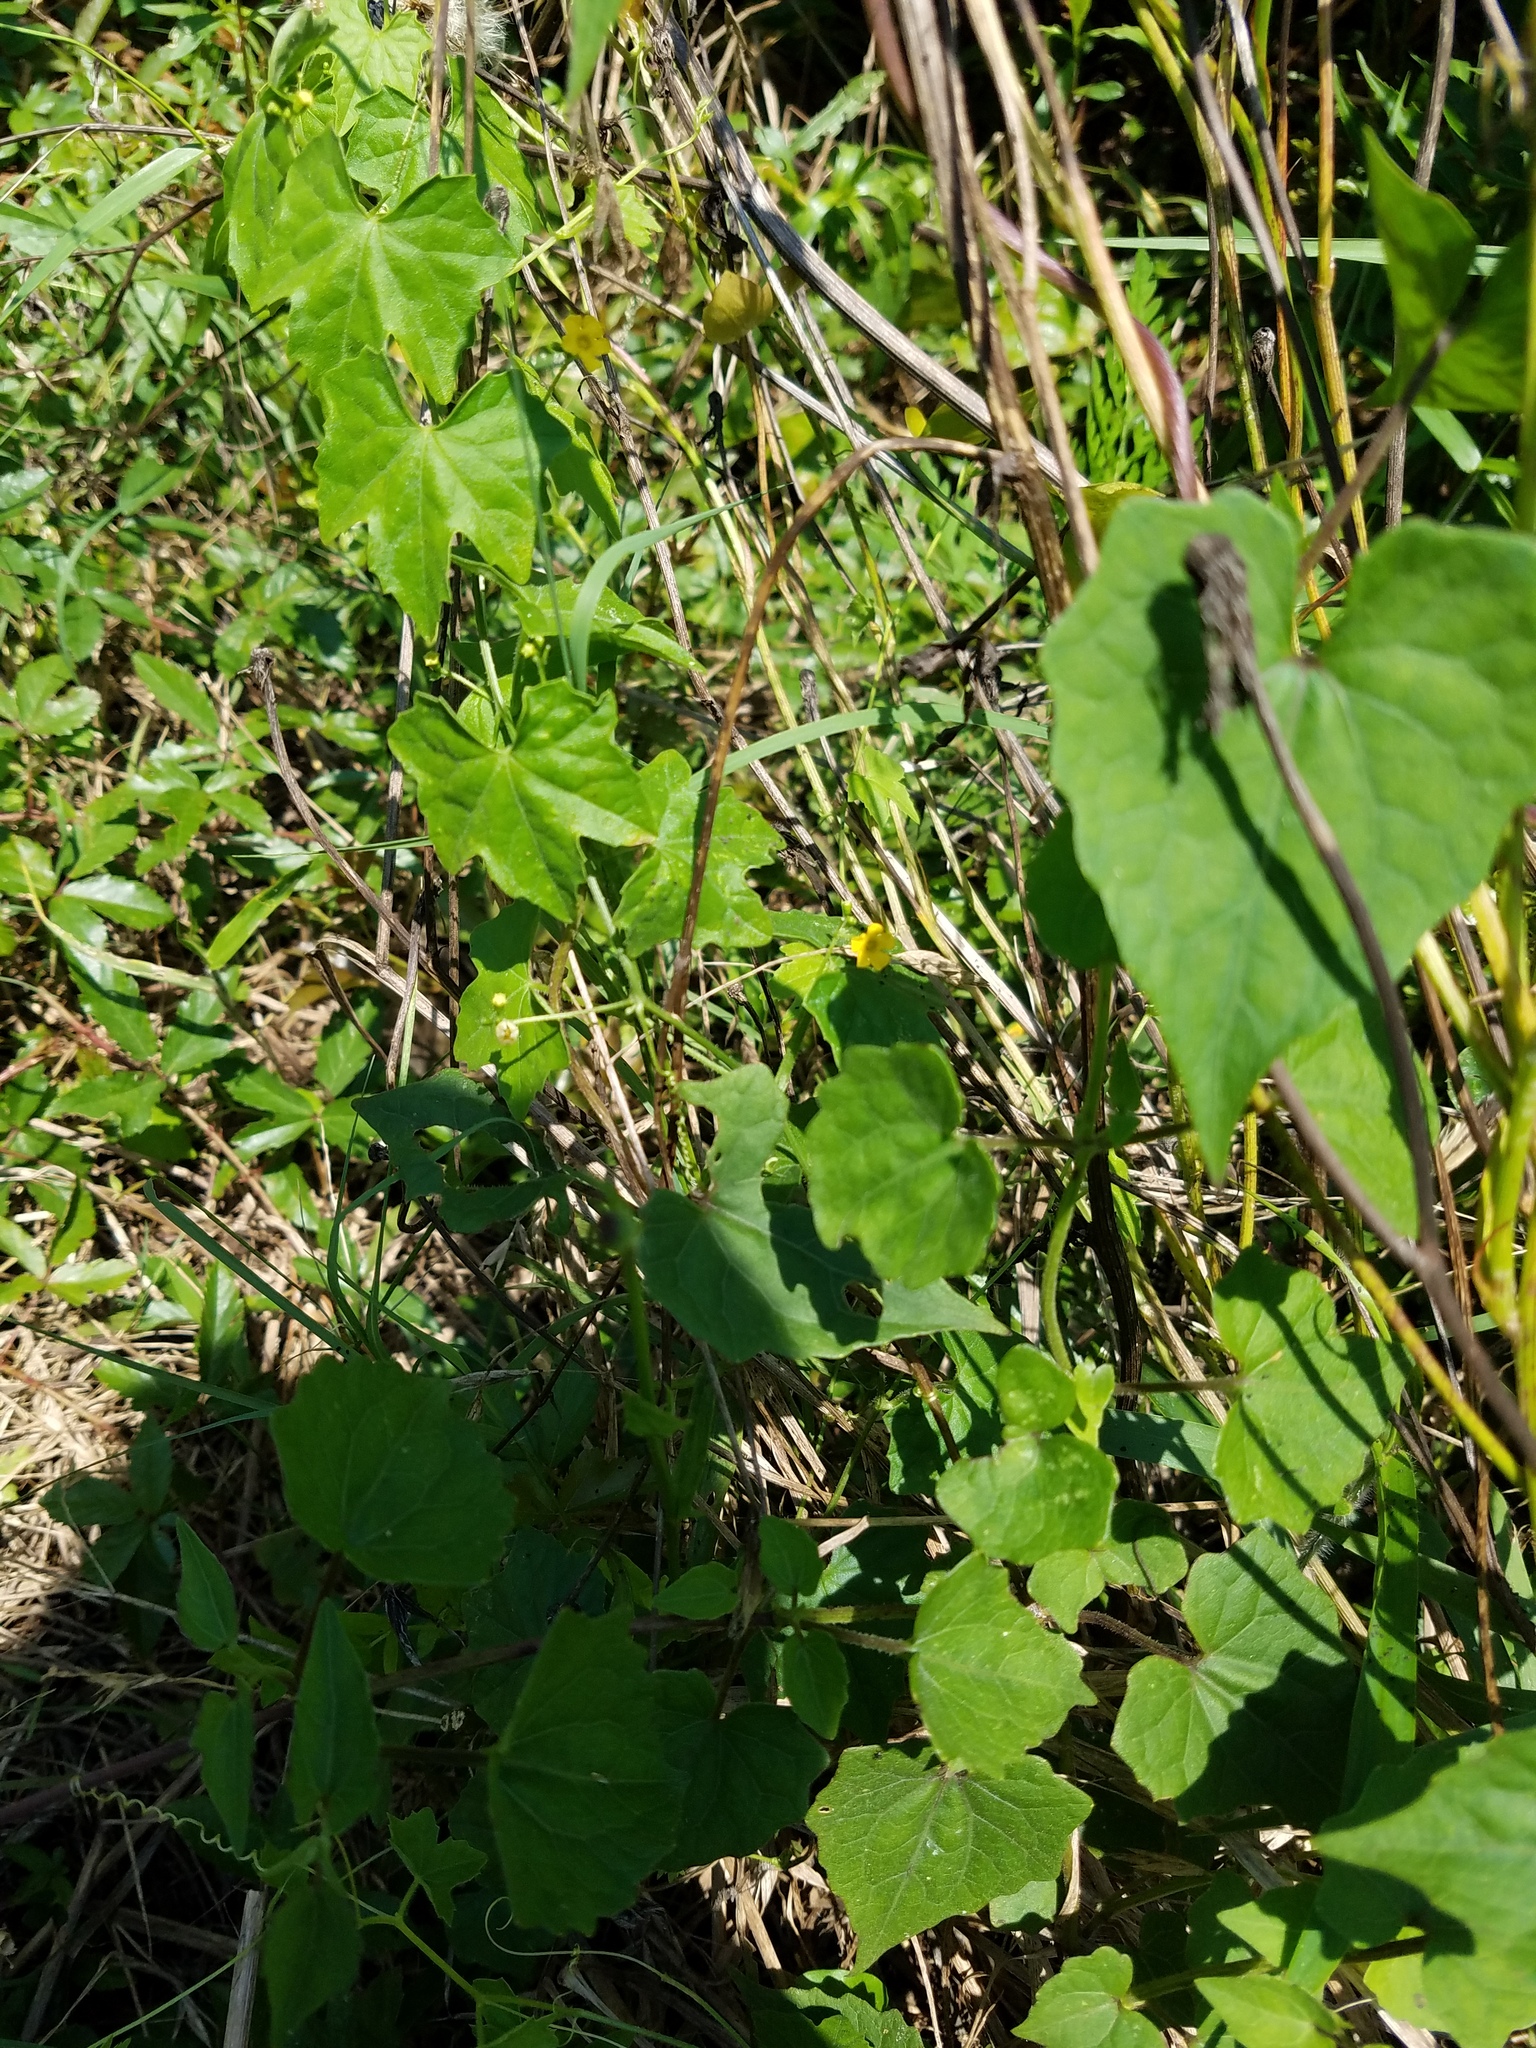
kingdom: Plantae
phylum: Tracheophyta
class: Magnoliopsida
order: Cucurbitales
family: Cucurbitaceae
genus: Melothria
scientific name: Melothria pendula
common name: Creeping-cucumber
